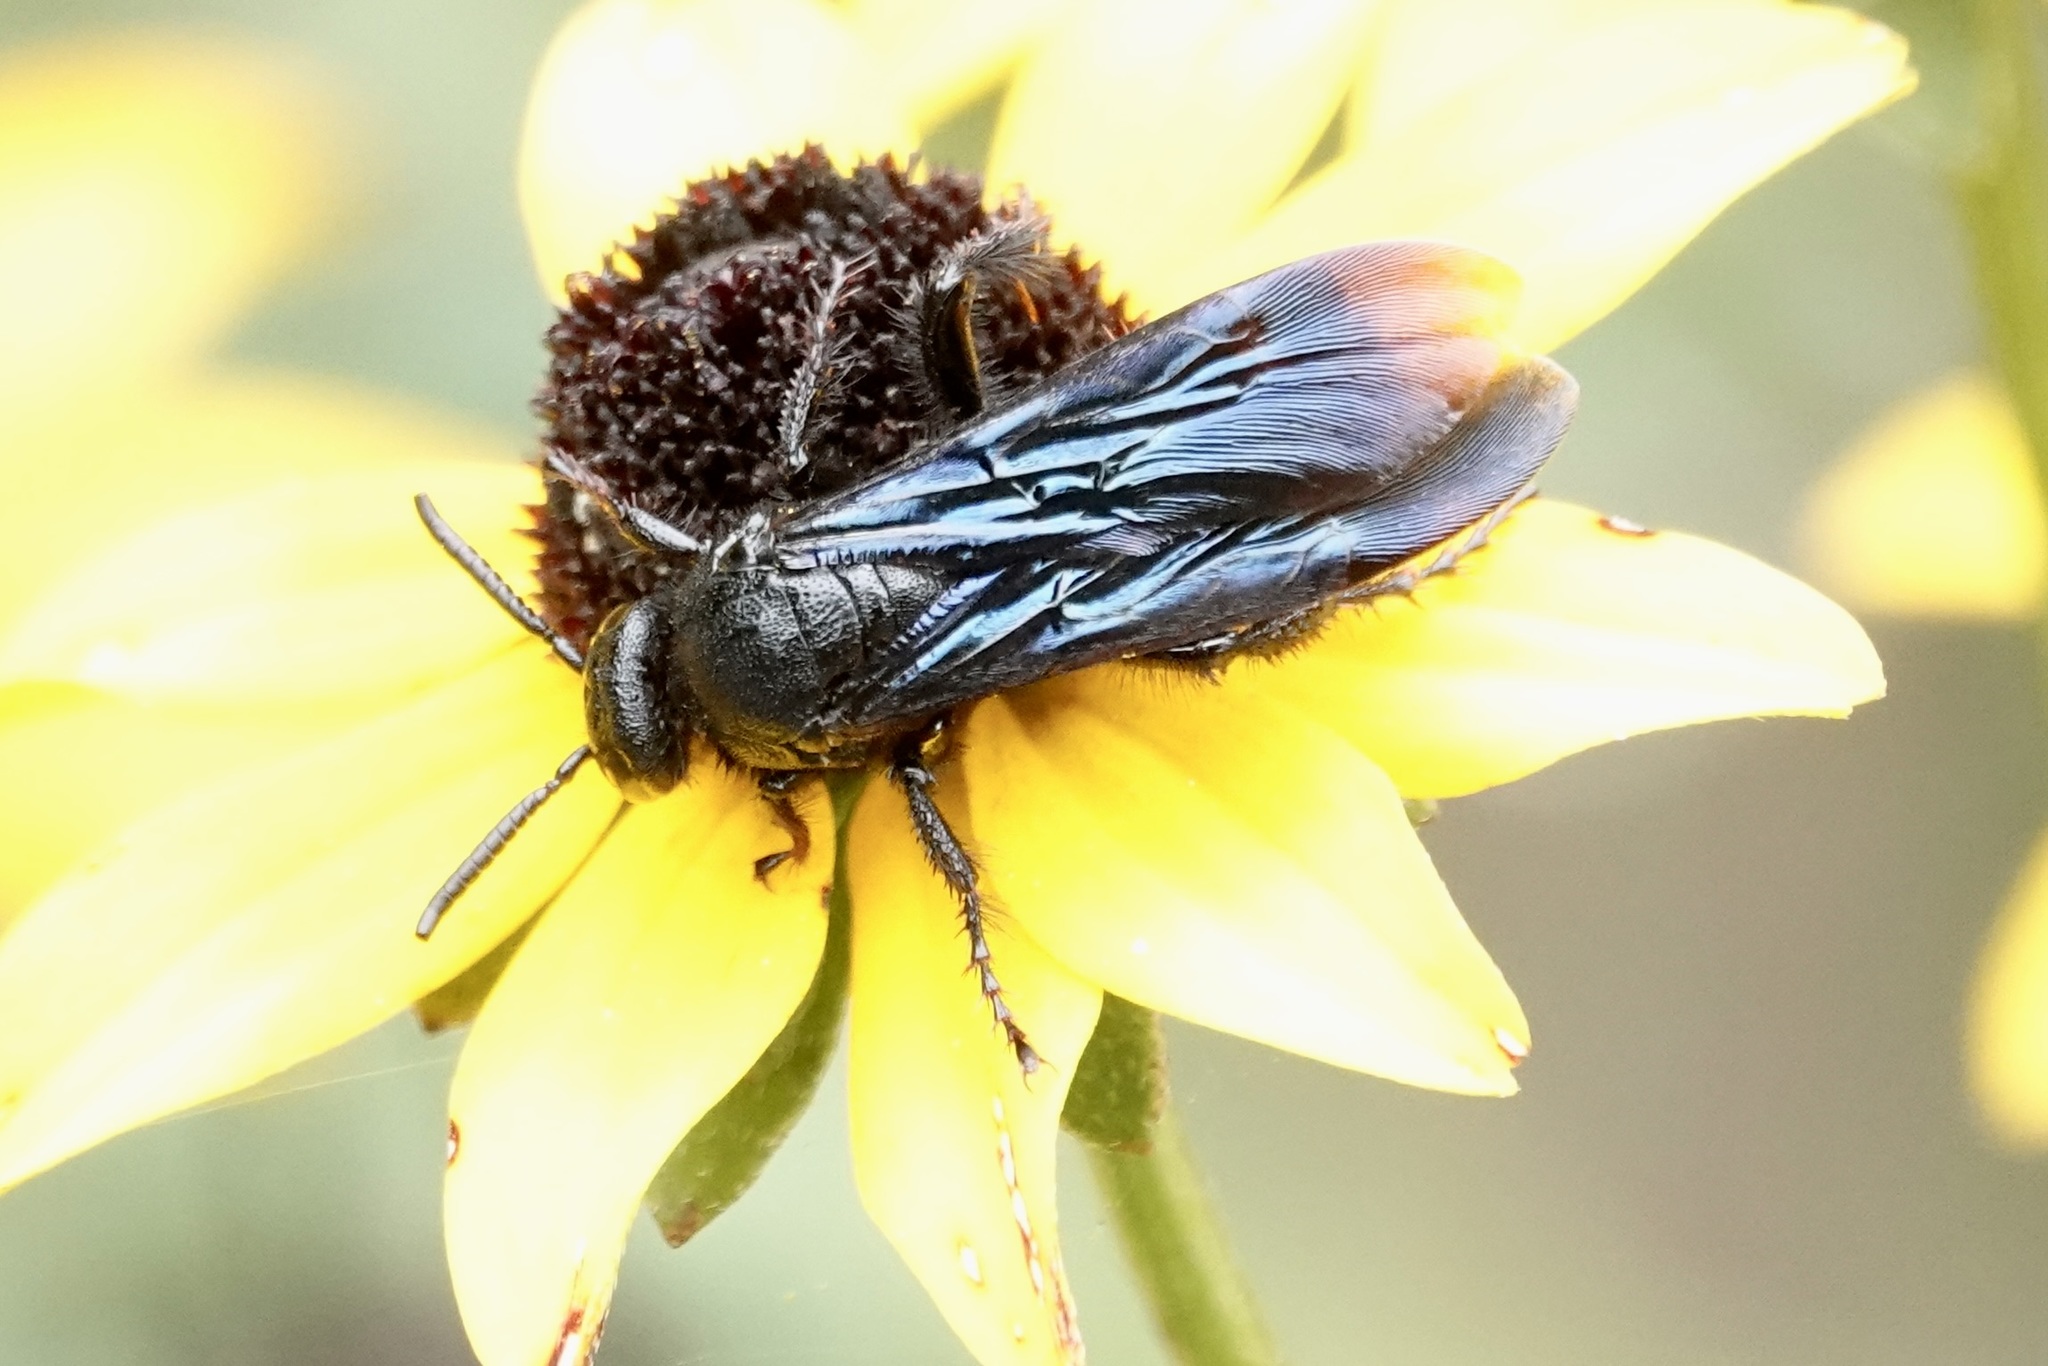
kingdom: Animalia
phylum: Arthropoda
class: Insecta
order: Hymenoptera
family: Scoliidae
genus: Scolia
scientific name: Scolia dubia
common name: Blue-winged scoliid wasp
